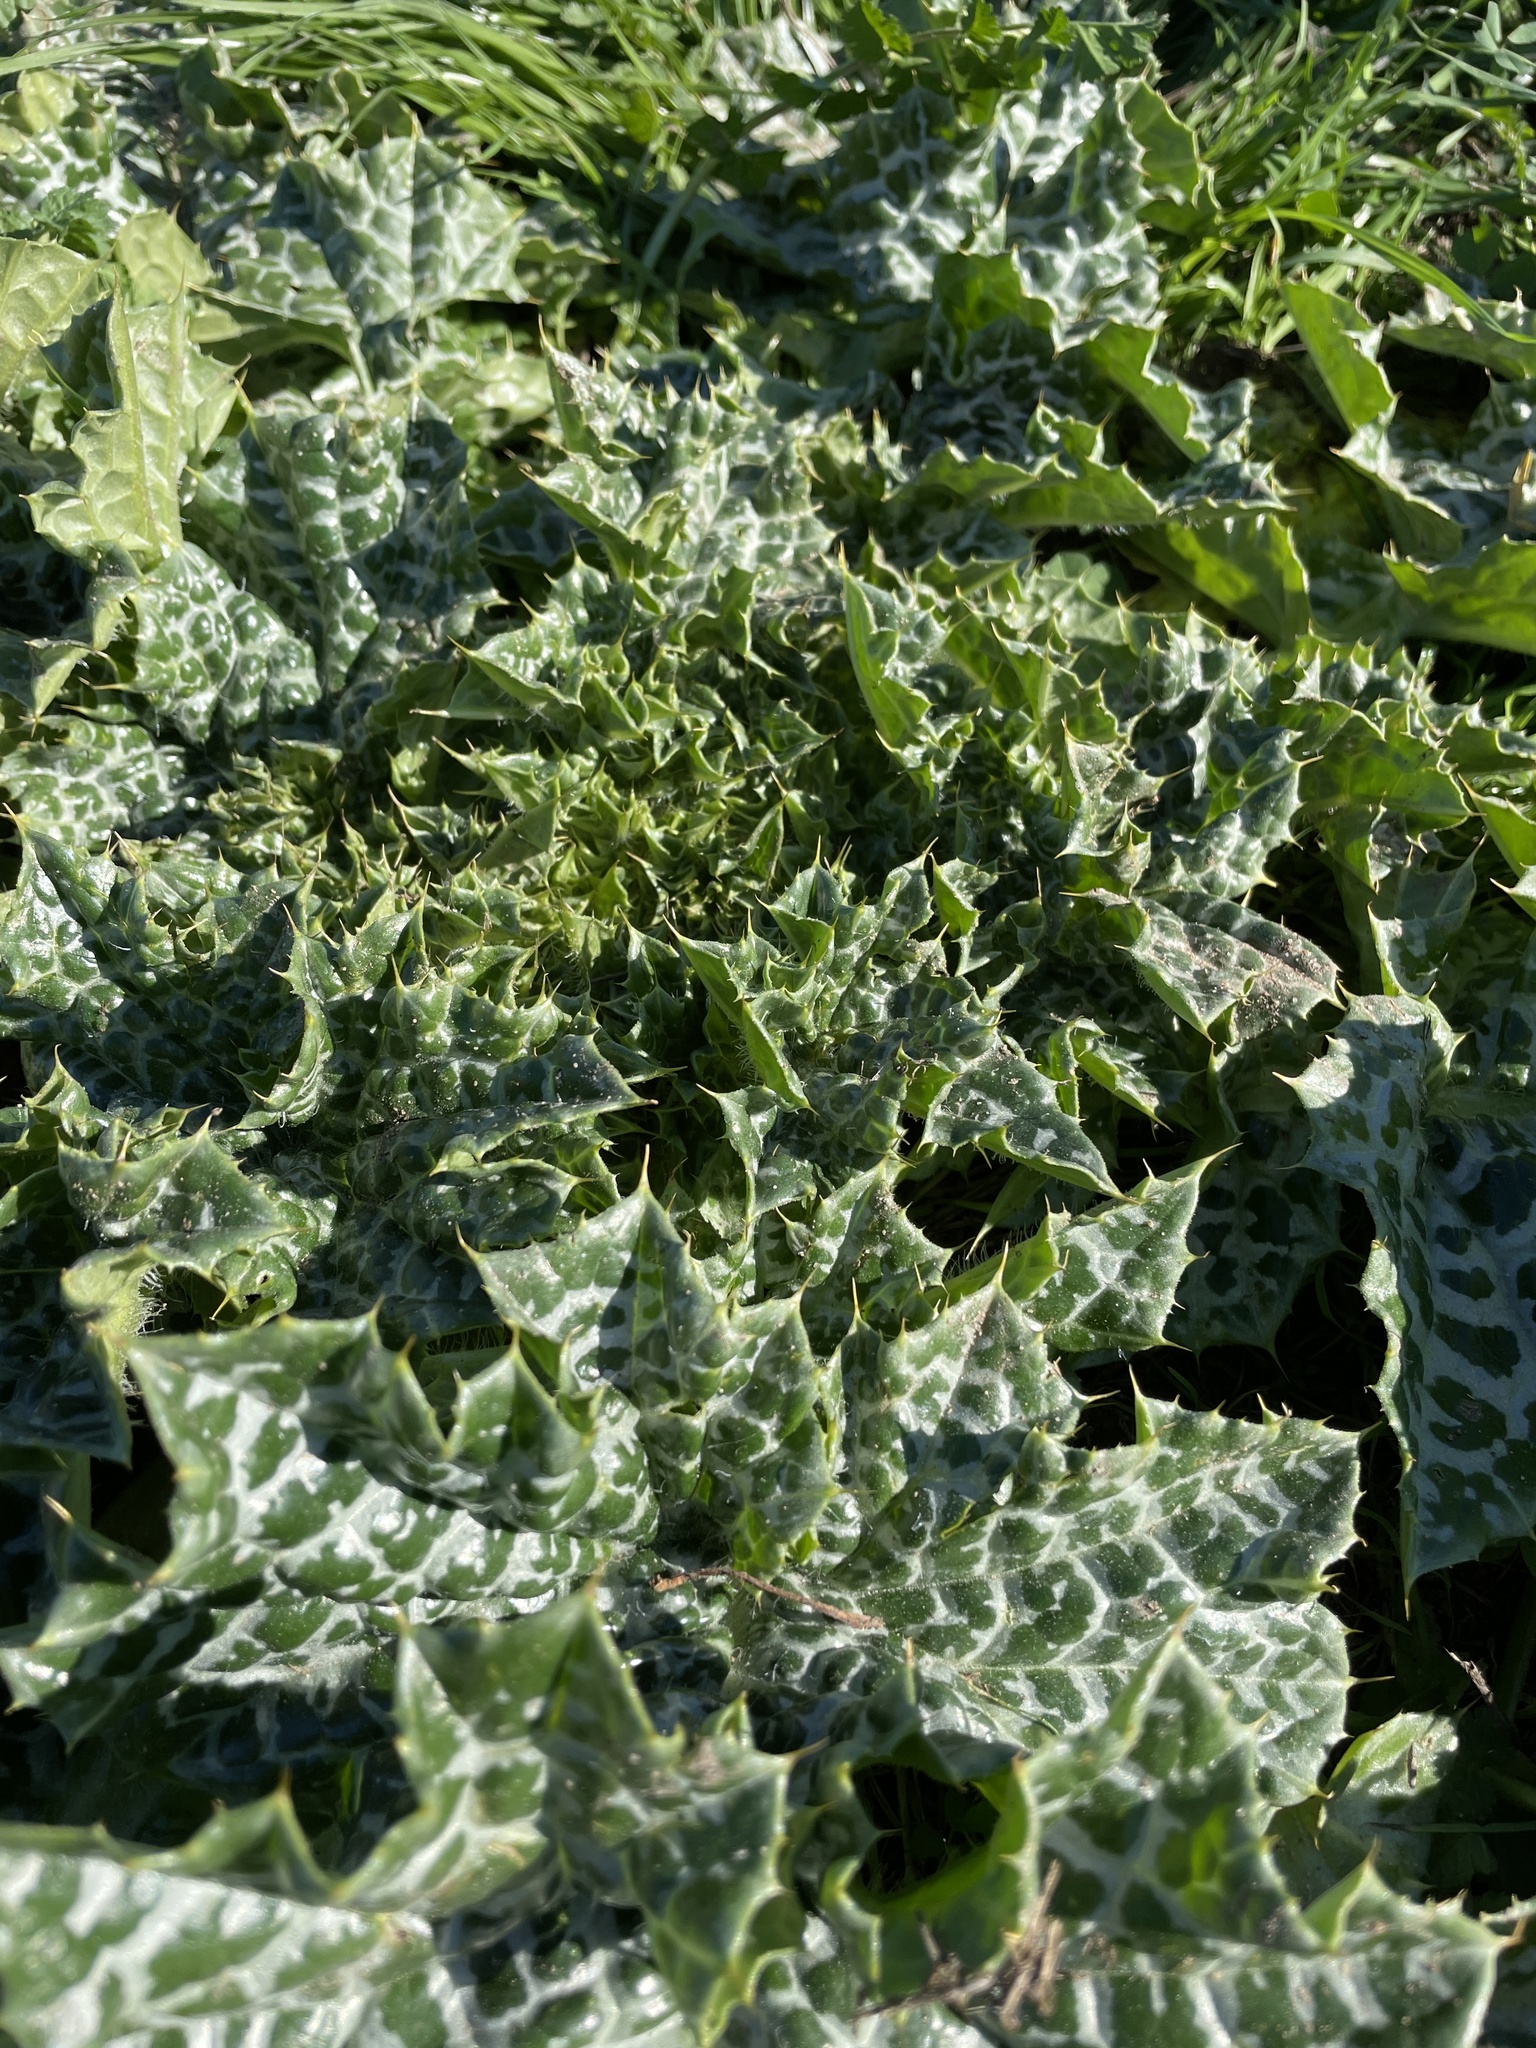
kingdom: Plantae
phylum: Tracheophyta
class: Magnoliopsida
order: Asterales
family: Asteraceae
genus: Silybum
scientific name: Silybum marianum
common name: Milk thistle
